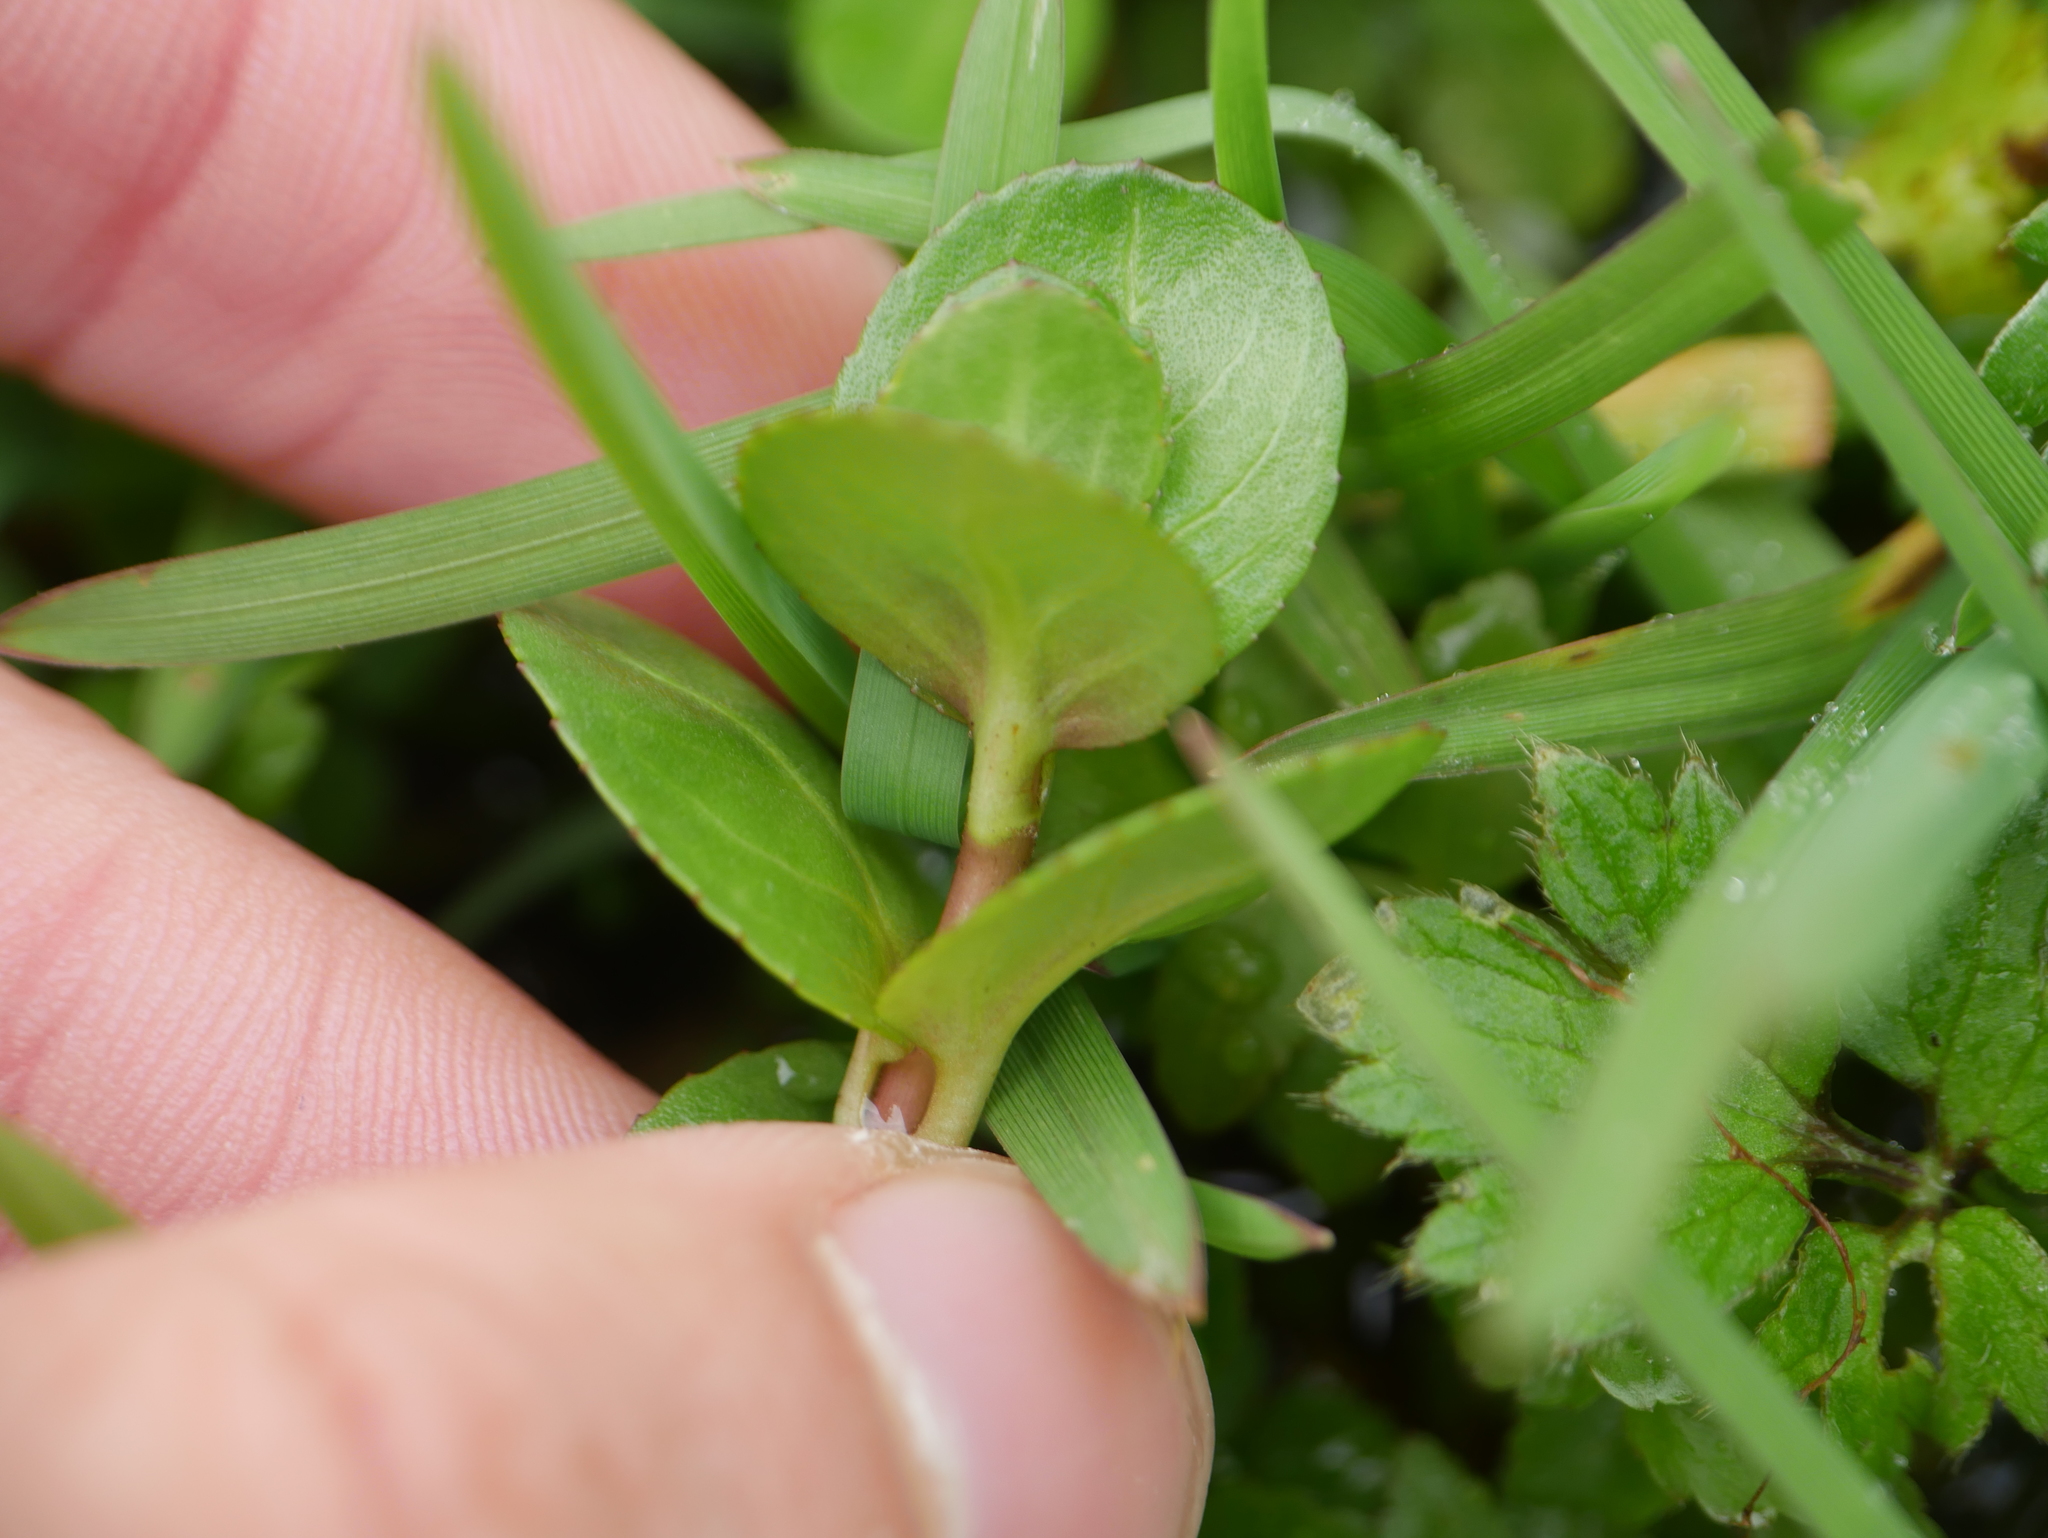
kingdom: Plantae
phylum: Tracheophyta
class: Magnoliopsida
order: Lamiales
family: Plantaginaceae
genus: Veronica
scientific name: Veronica beccabunga
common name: Brooklime
